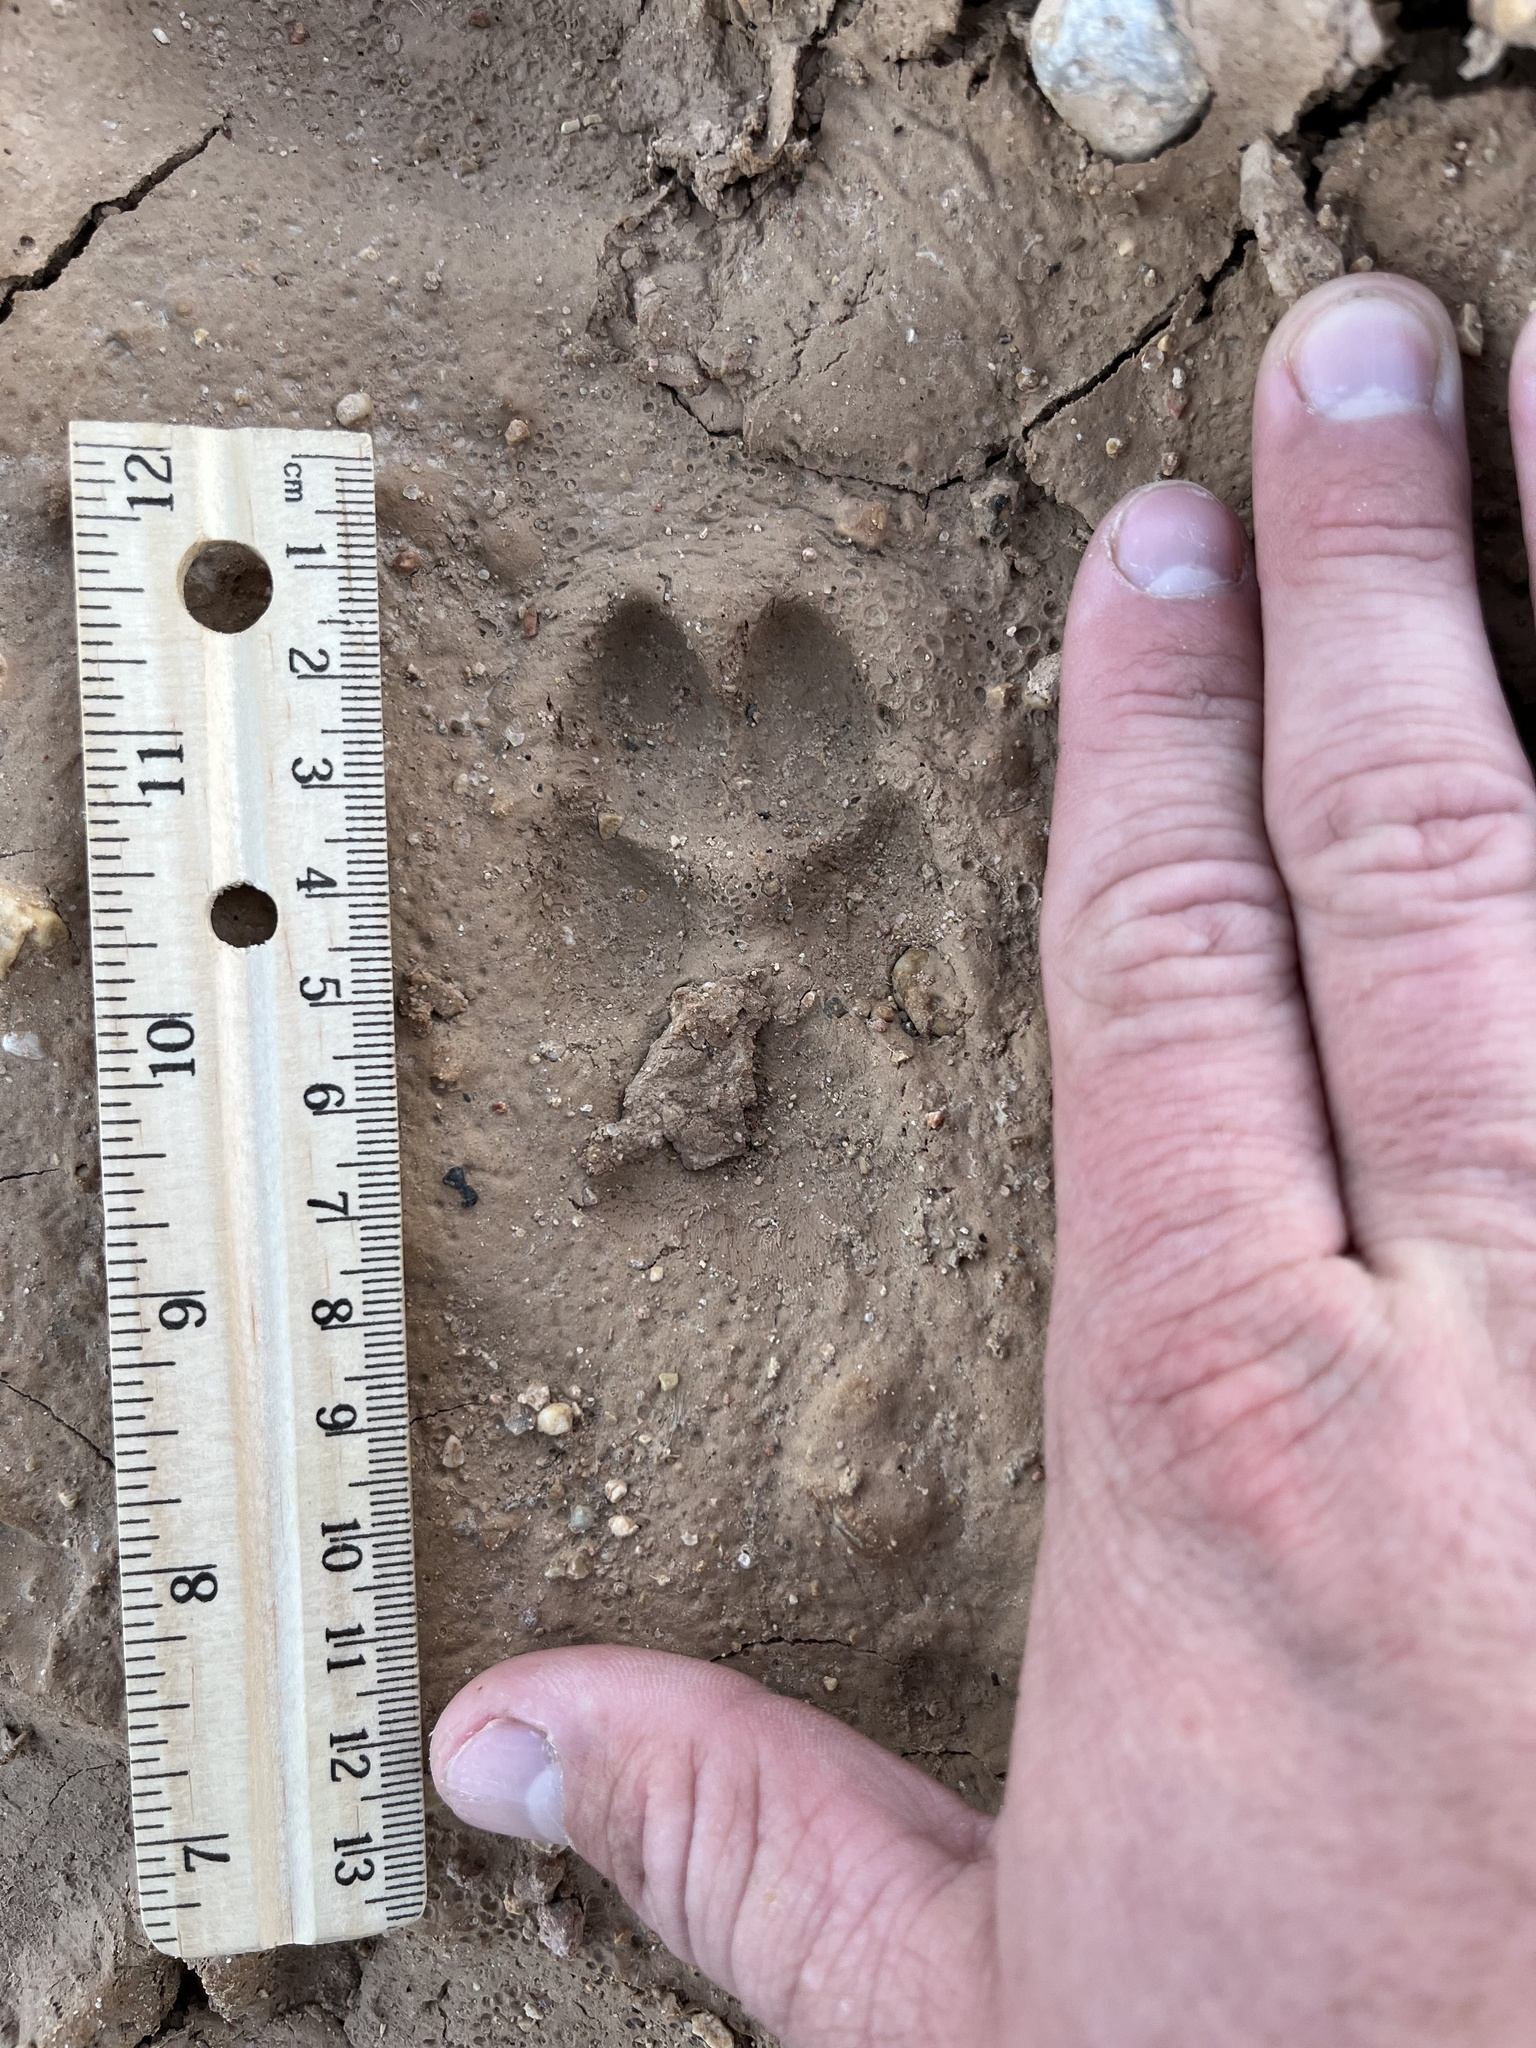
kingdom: Animalia
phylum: Chordata
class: Mammalia
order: Carnivora
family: Canidae
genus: Canis
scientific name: Canis latrans
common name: Coyote
